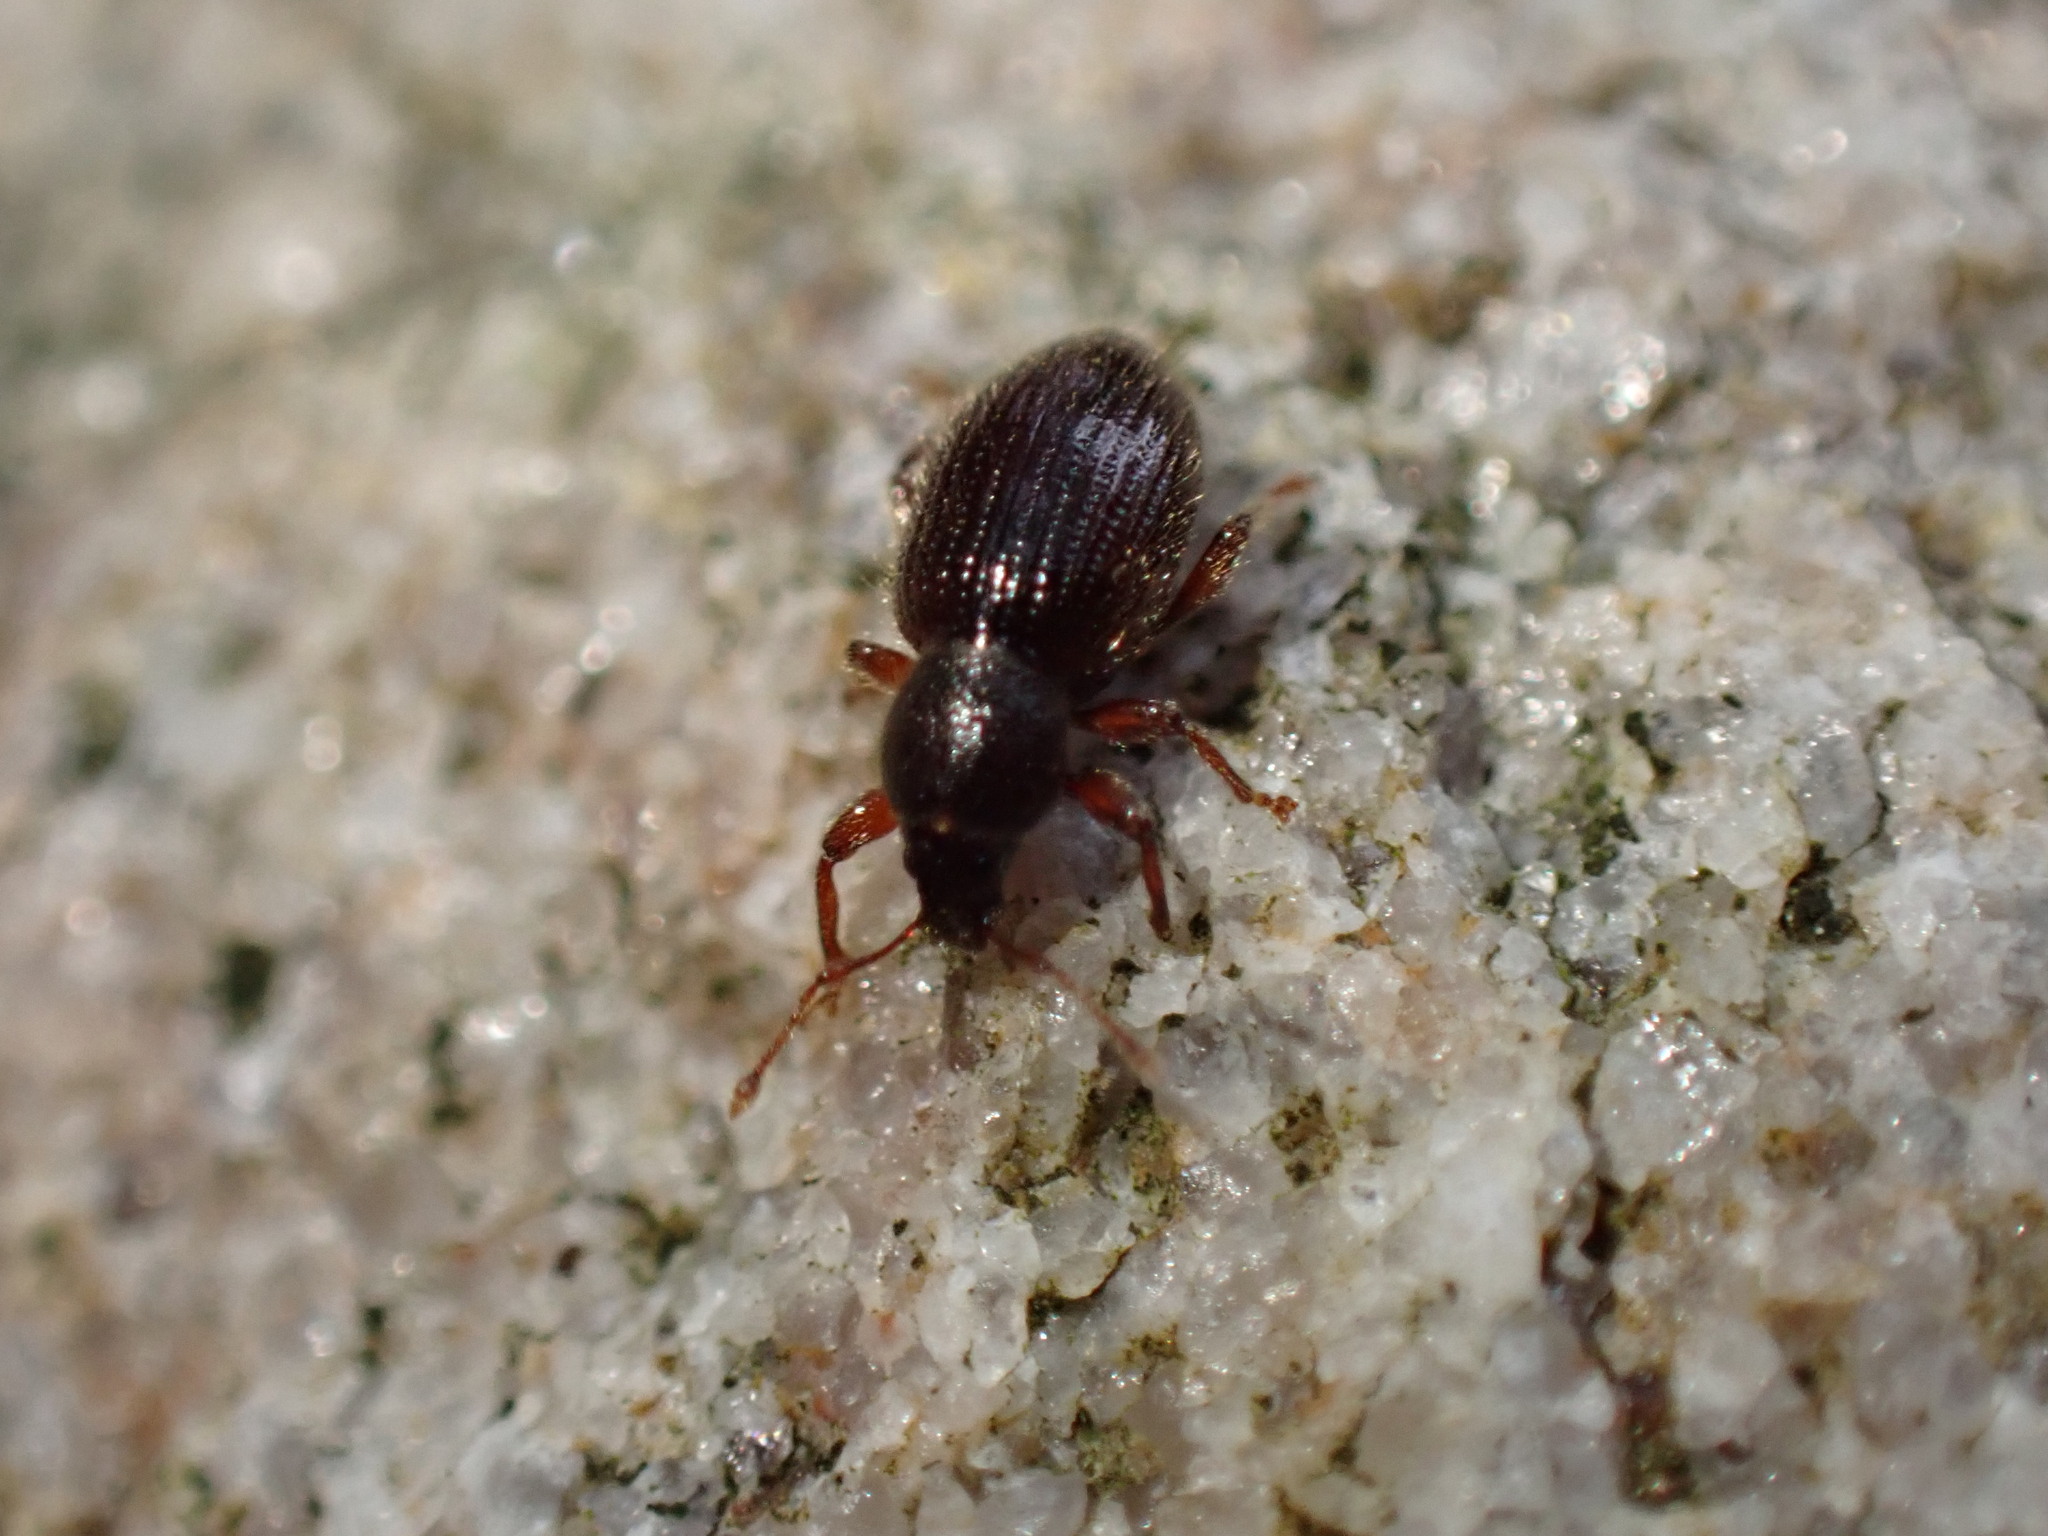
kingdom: Animalia
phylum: Arthropoda
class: Insecta
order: Coleoptera
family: Curculionidae
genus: Exomias
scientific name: Exomias pellucidus
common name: Hairy spider weevil
